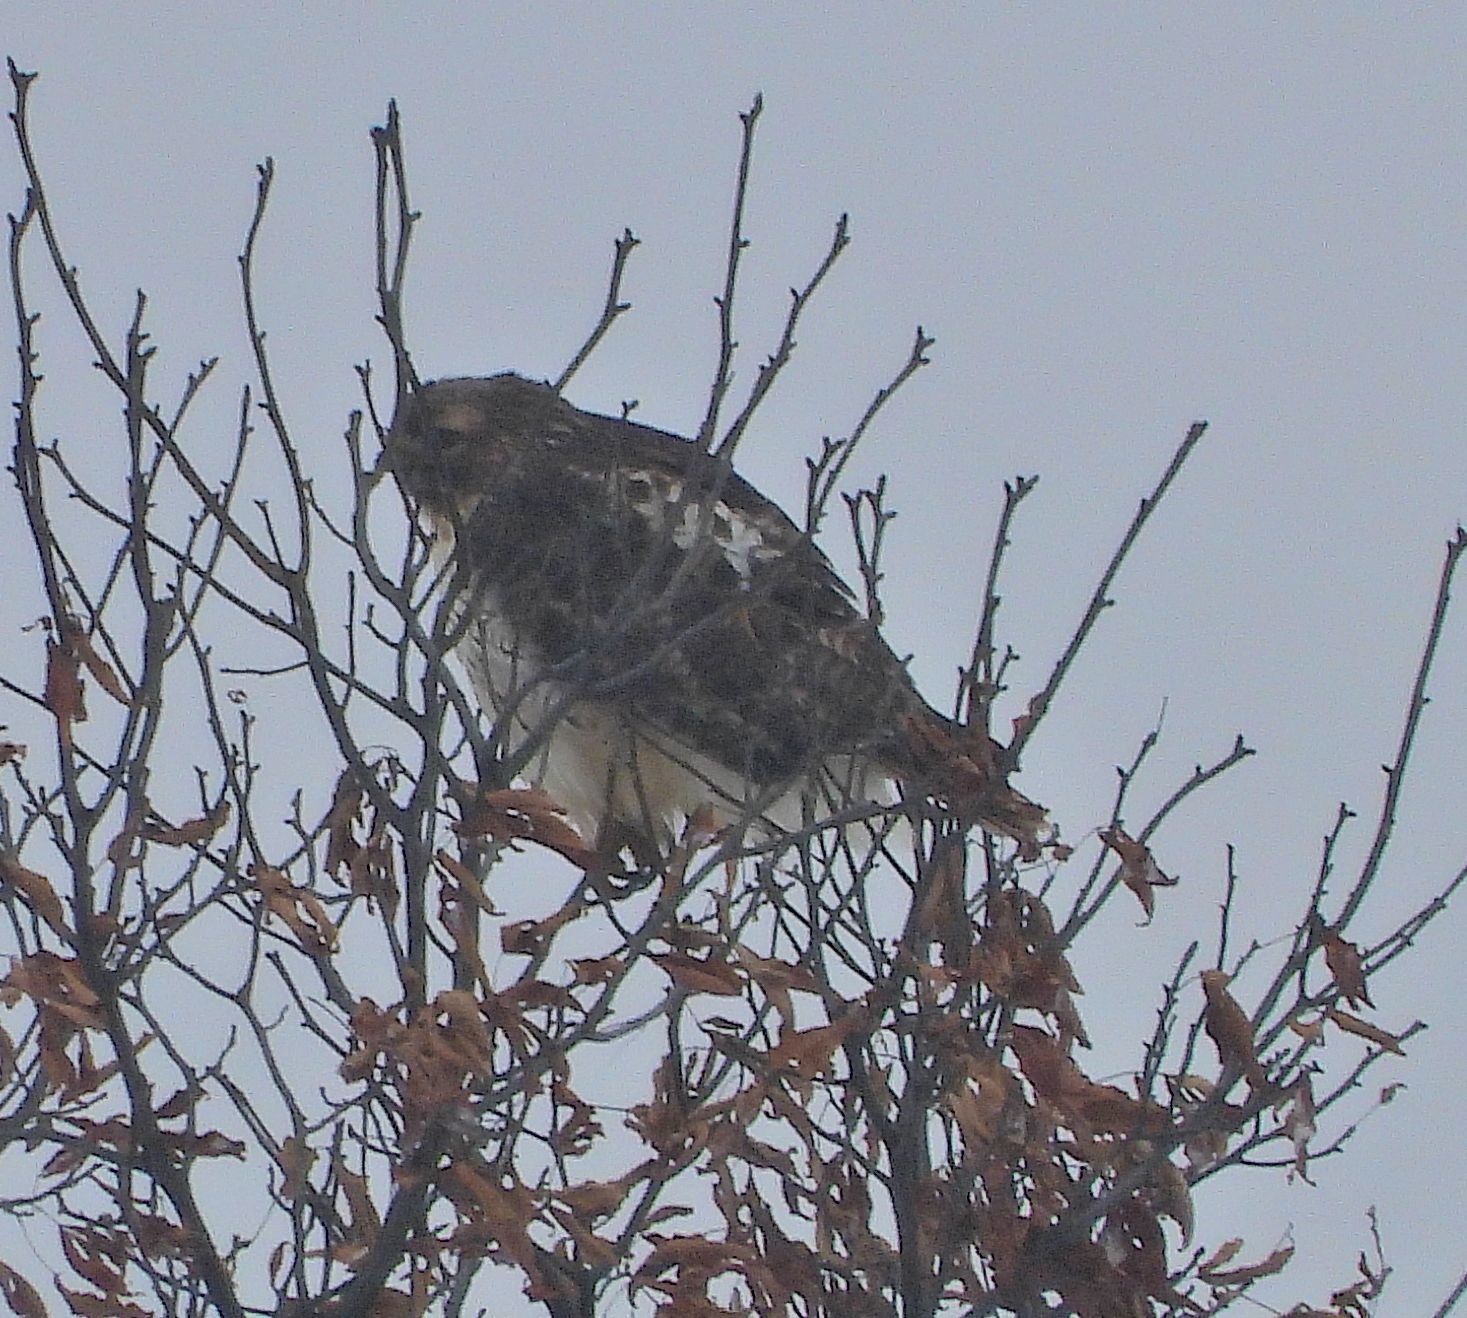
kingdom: Animalia
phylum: Chordata
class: Aves
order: Accipitriformes
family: Accipitridae
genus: Buteo
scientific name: Buteo jamaicensis
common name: Red-tailed hawk
